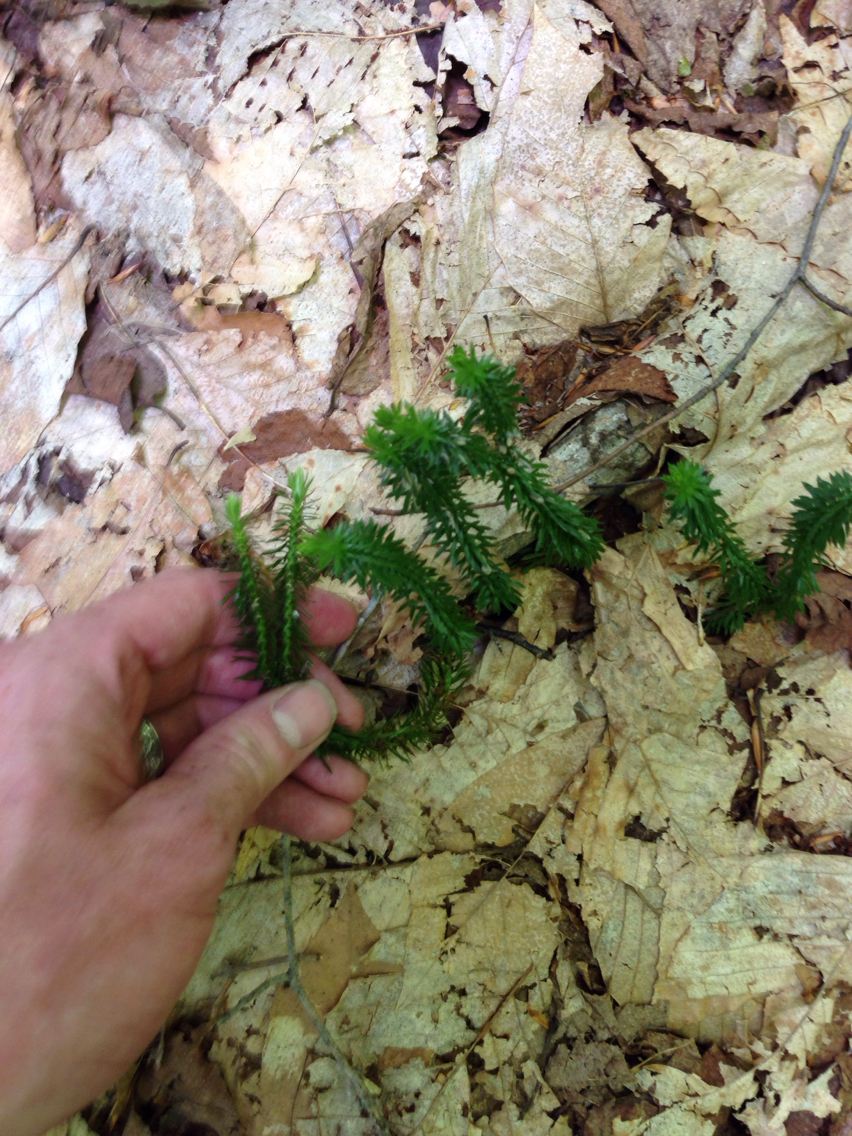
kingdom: Plantae
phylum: Tracheophyta
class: Lycopodiopsida
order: Lycopodiales
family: Lycopodiaceae
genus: Huperzia
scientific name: Huperzia lucidula
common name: Shining clubmoss
